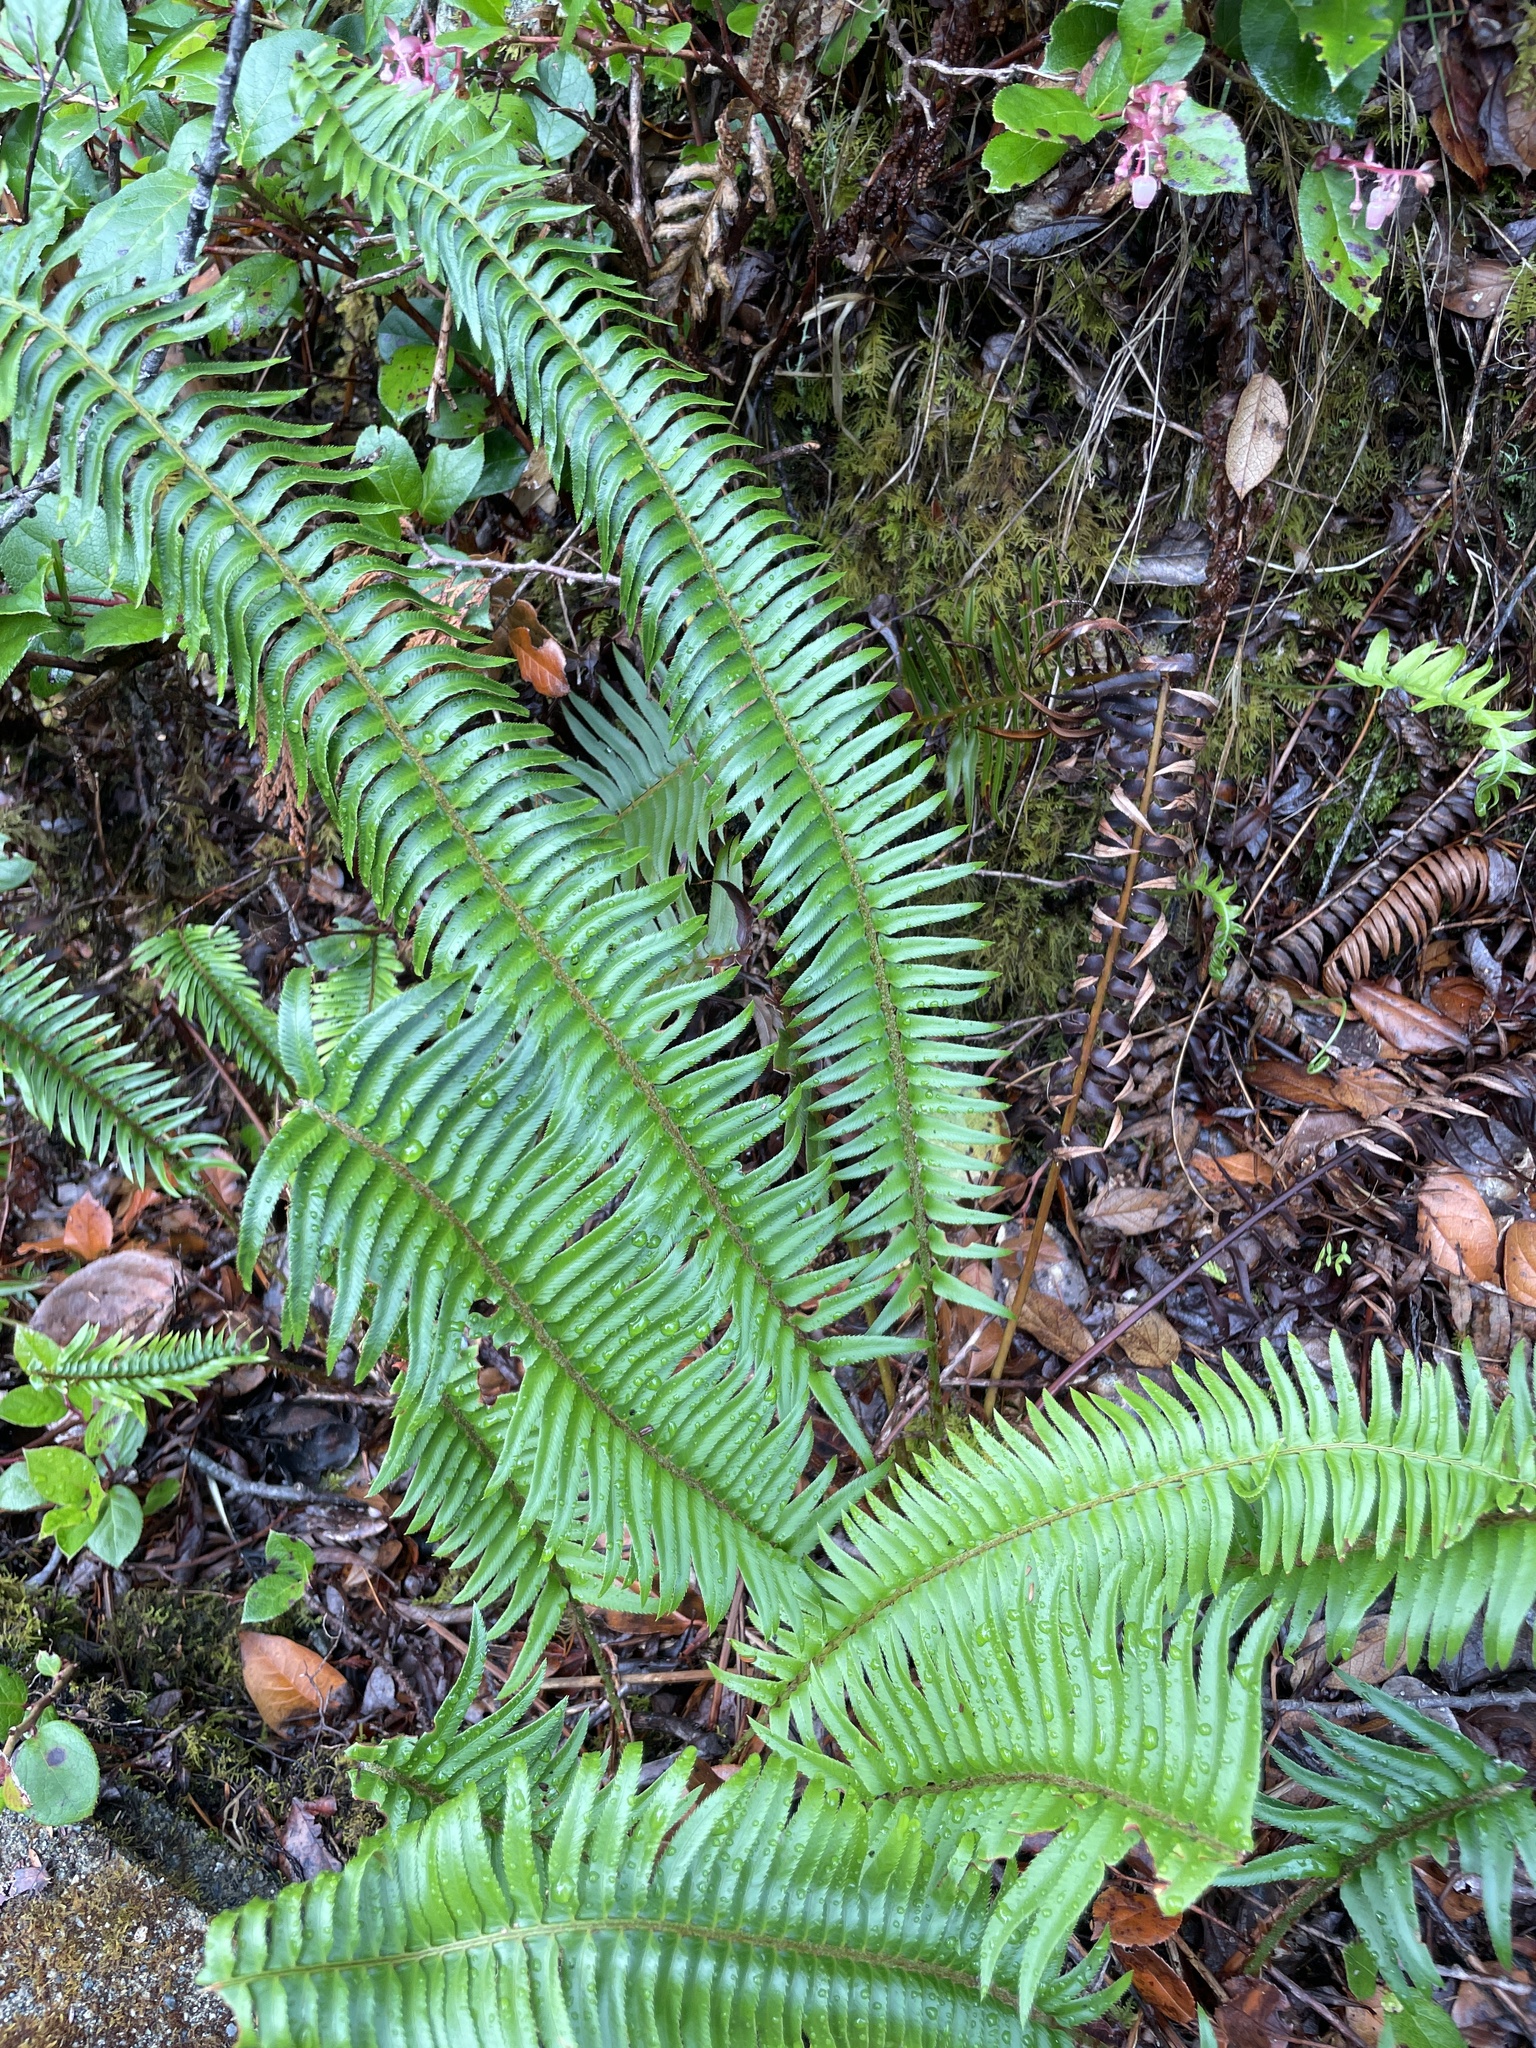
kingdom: Plantae
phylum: Tracheophyta
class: Polypodiopsida
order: Polypodiales
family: Dryopteridaceae
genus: Polystichum
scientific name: Polystichum munitum
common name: Western sword-fern
